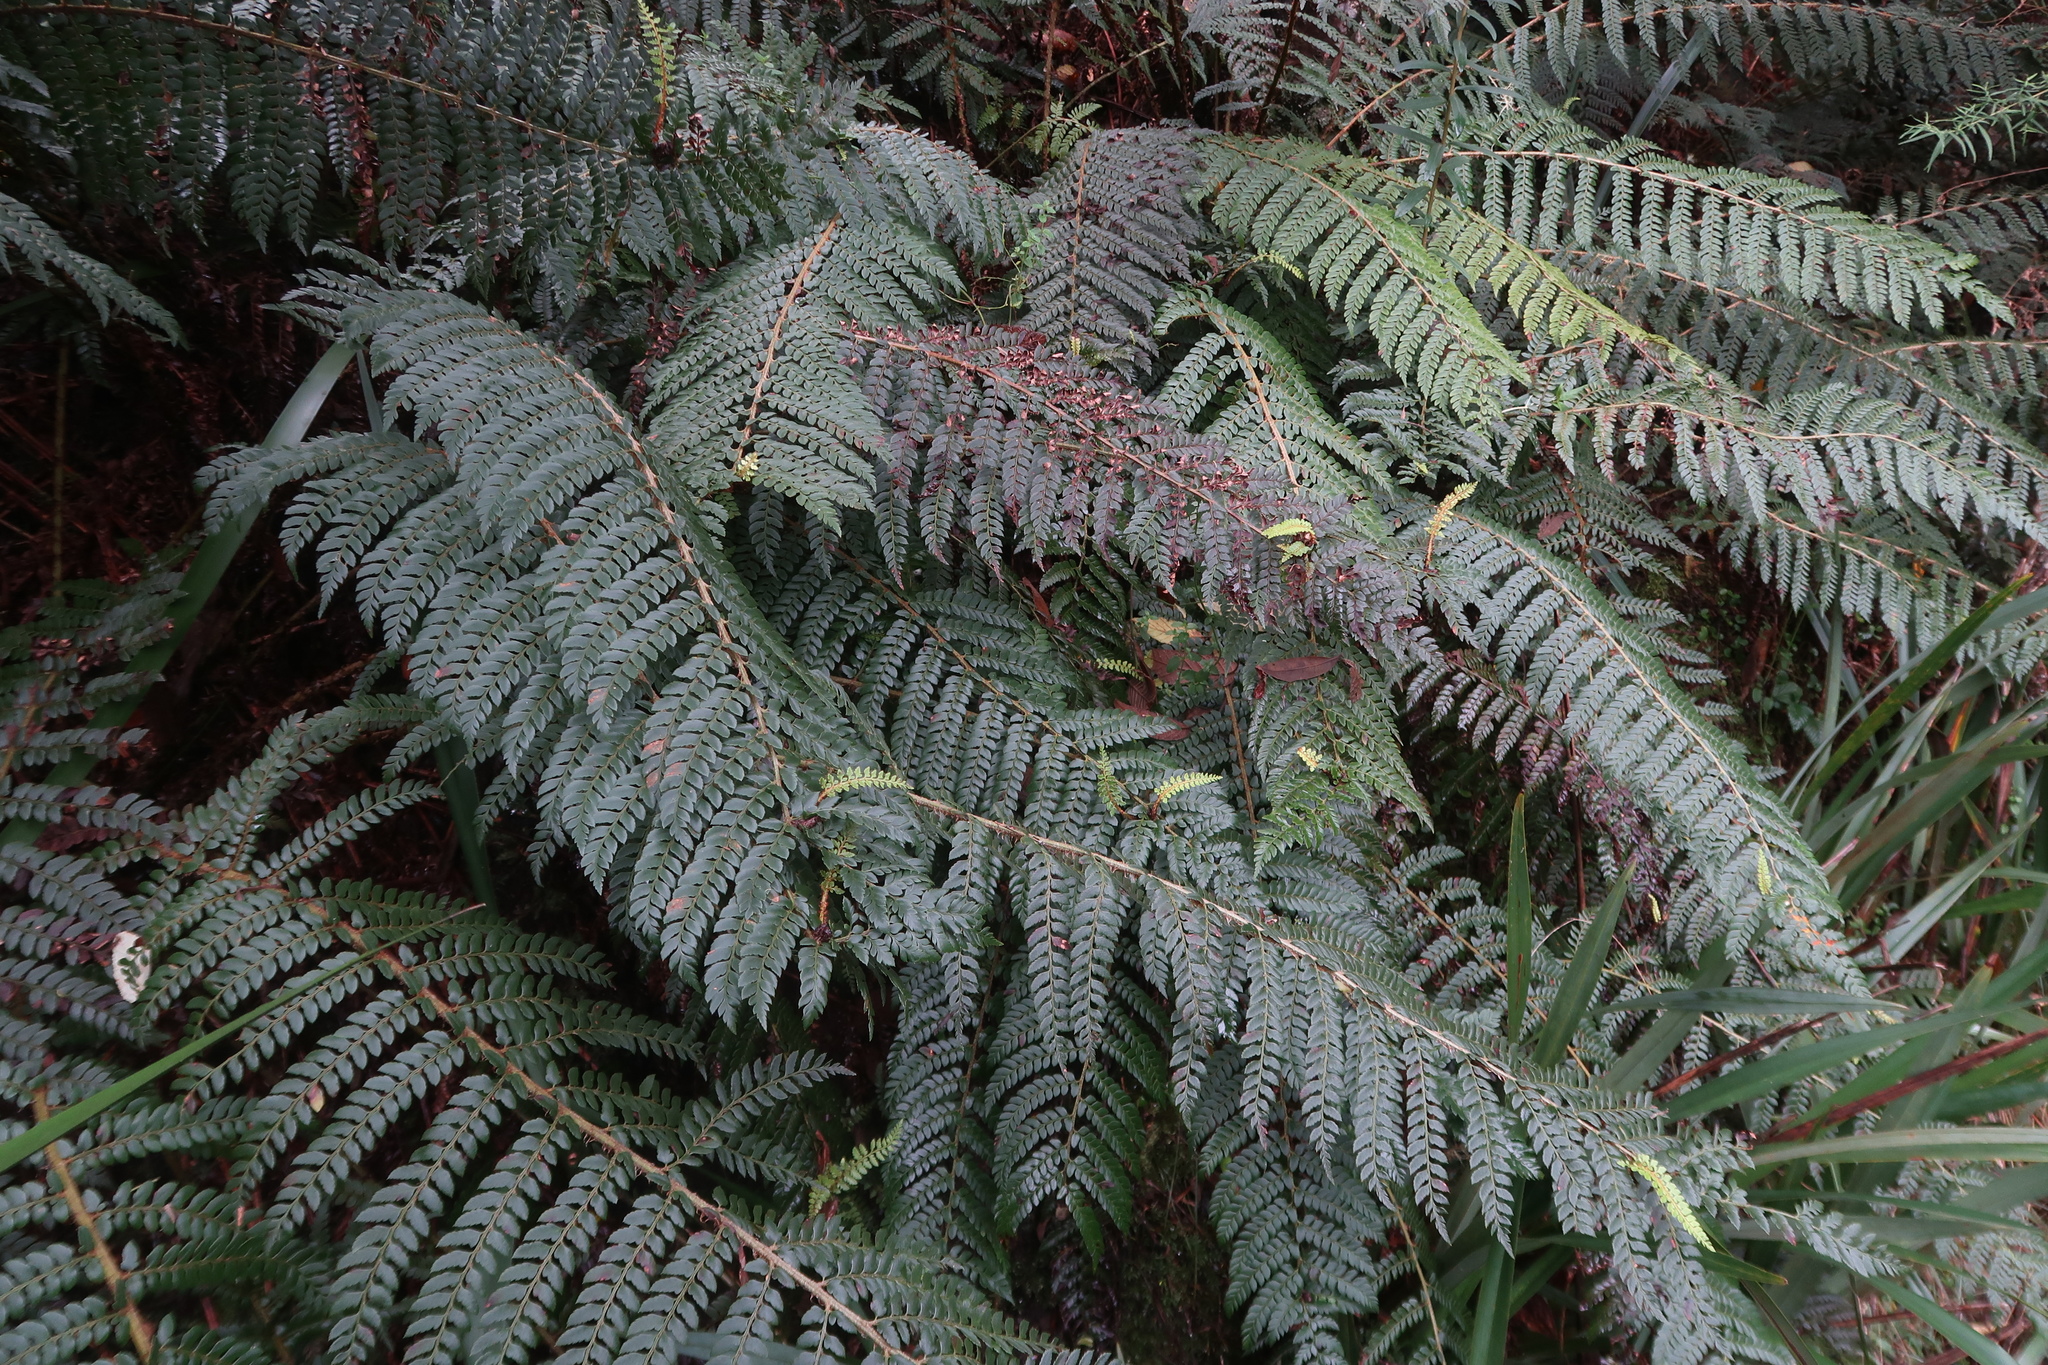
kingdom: Plantae
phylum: Tracheophyta
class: Polypodiopsida
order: Polypodiales
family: Dryopteridaceae
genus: Polystichum
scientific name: Polystichum proliferum
